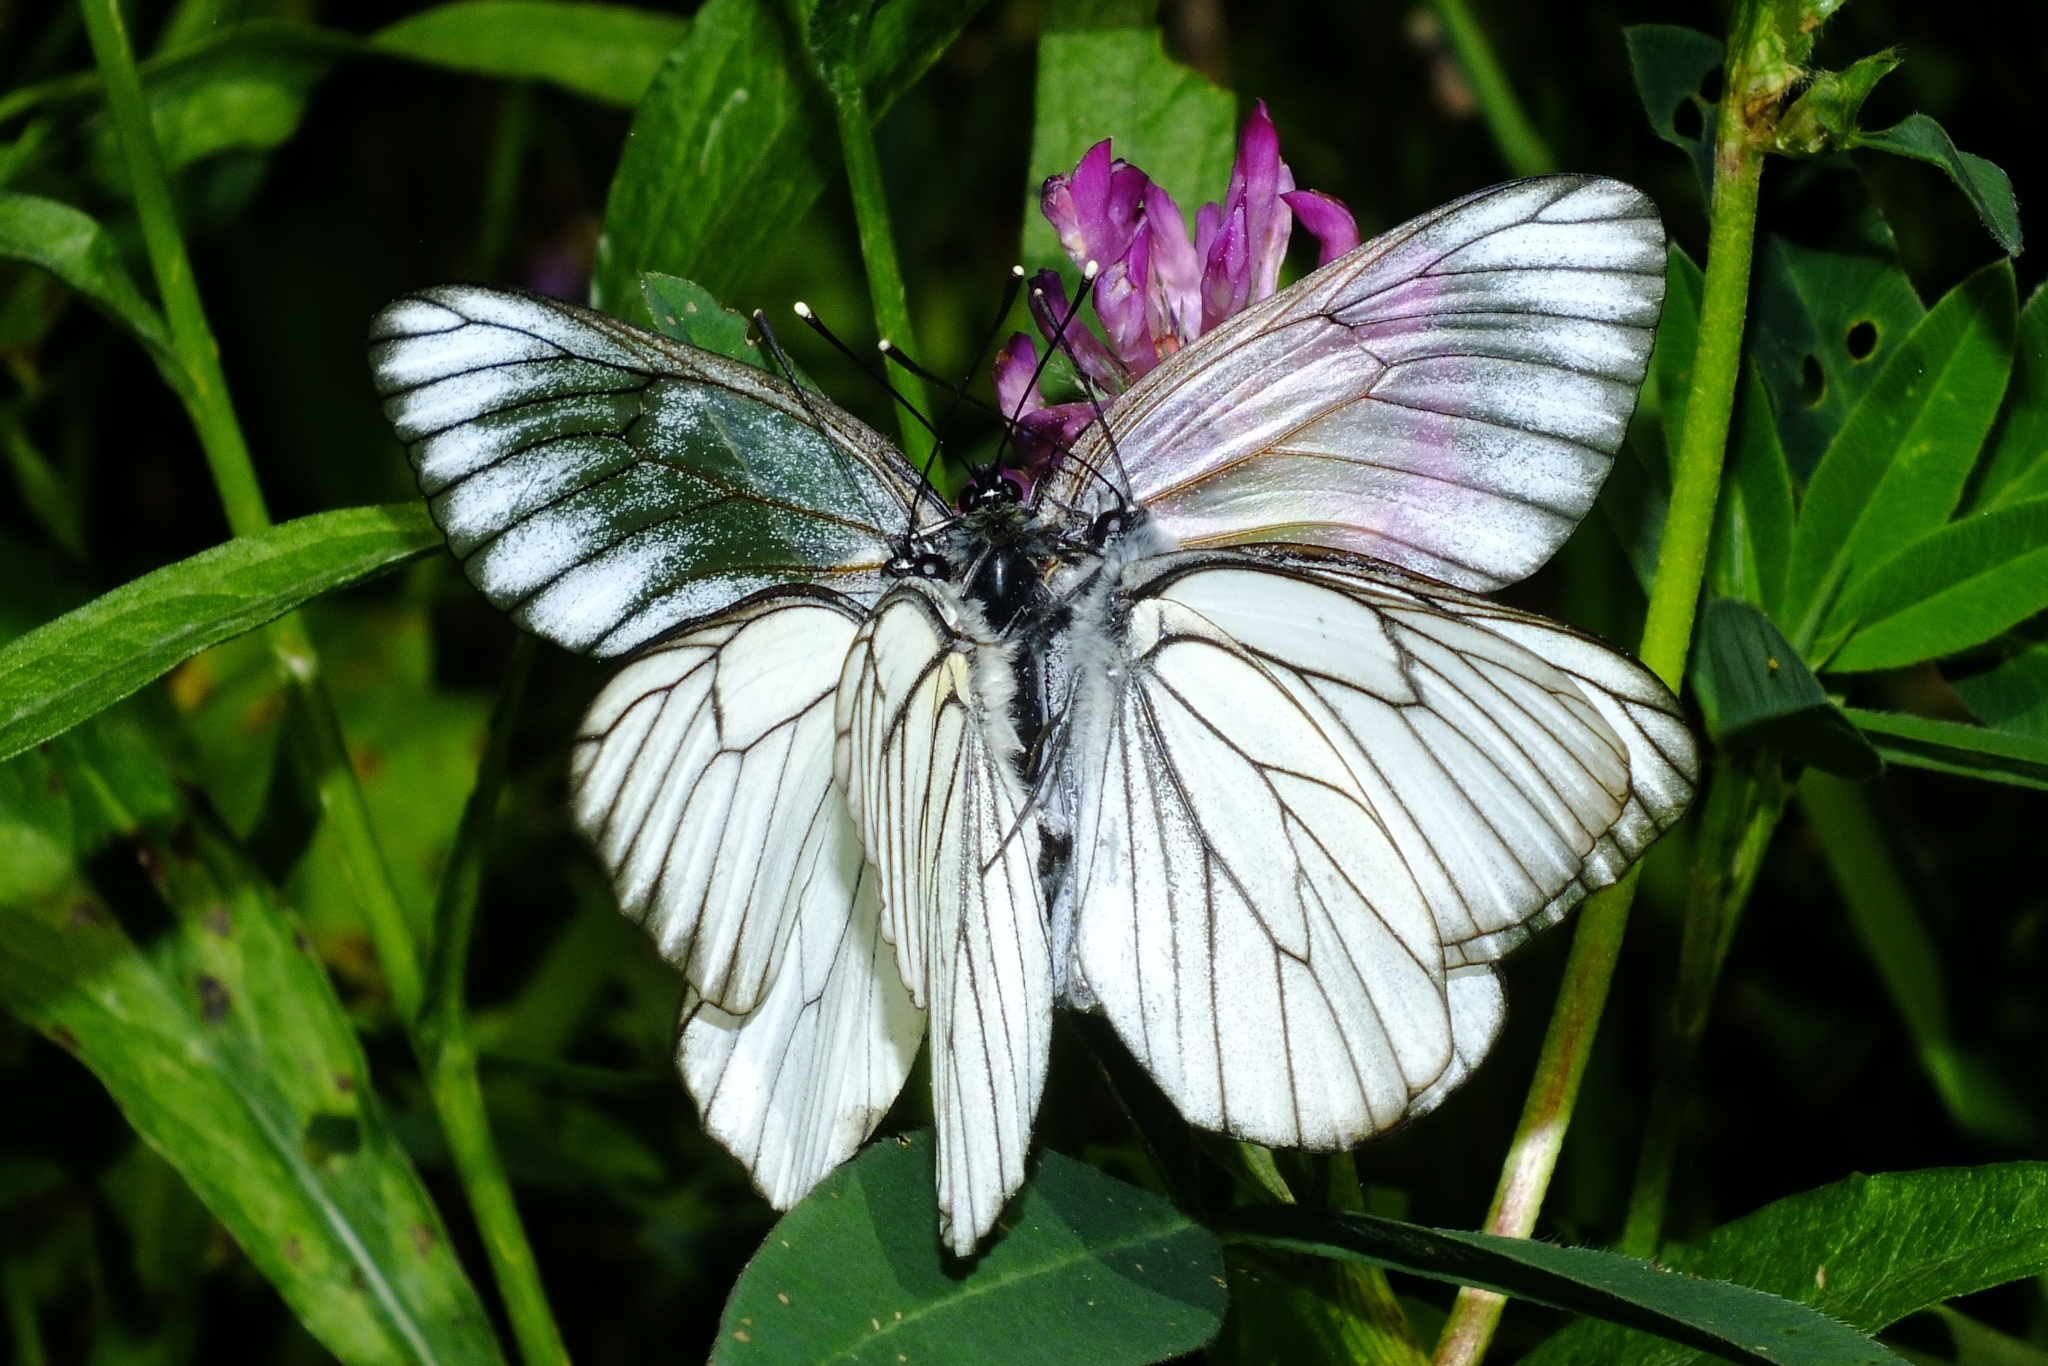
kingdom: Animalia
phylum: Arthropoda
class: Insecta
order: Lepidoptera
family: Pieridae
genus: Aporia
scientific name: Aporia crataegi
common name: Black-veined white
